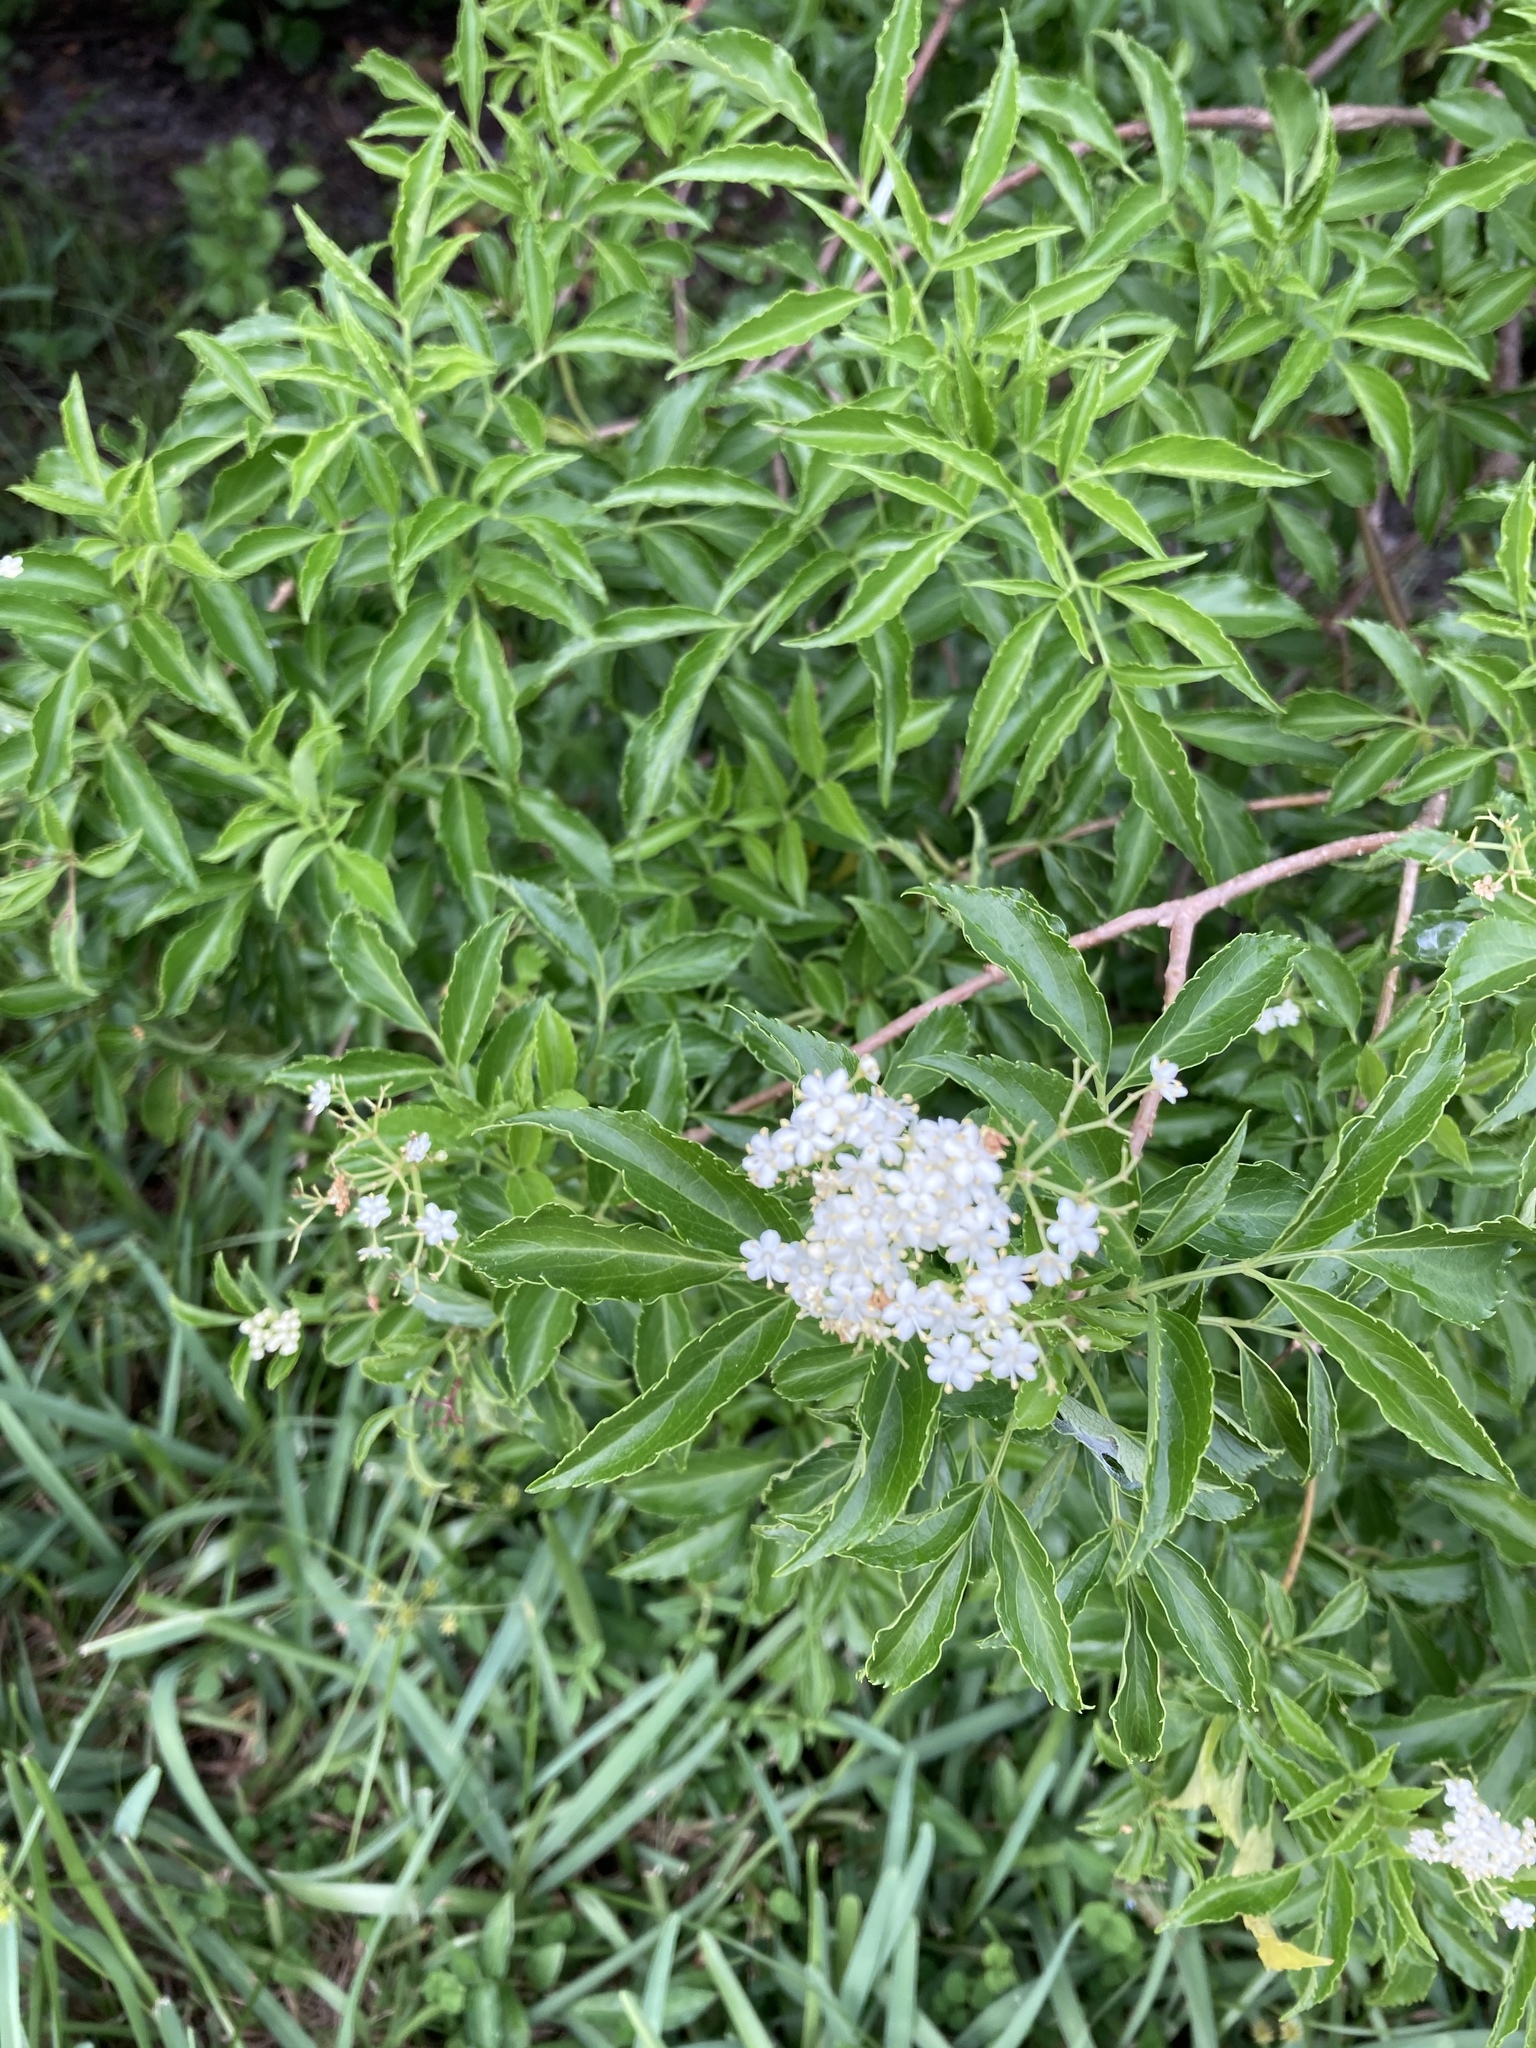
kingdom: Plantae
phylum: Tracheophyta
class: Magnoliopsida
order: Dipsacales
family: Viburnaceae
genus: Sambucus
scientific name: Sambucus canadensis
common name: American elder
